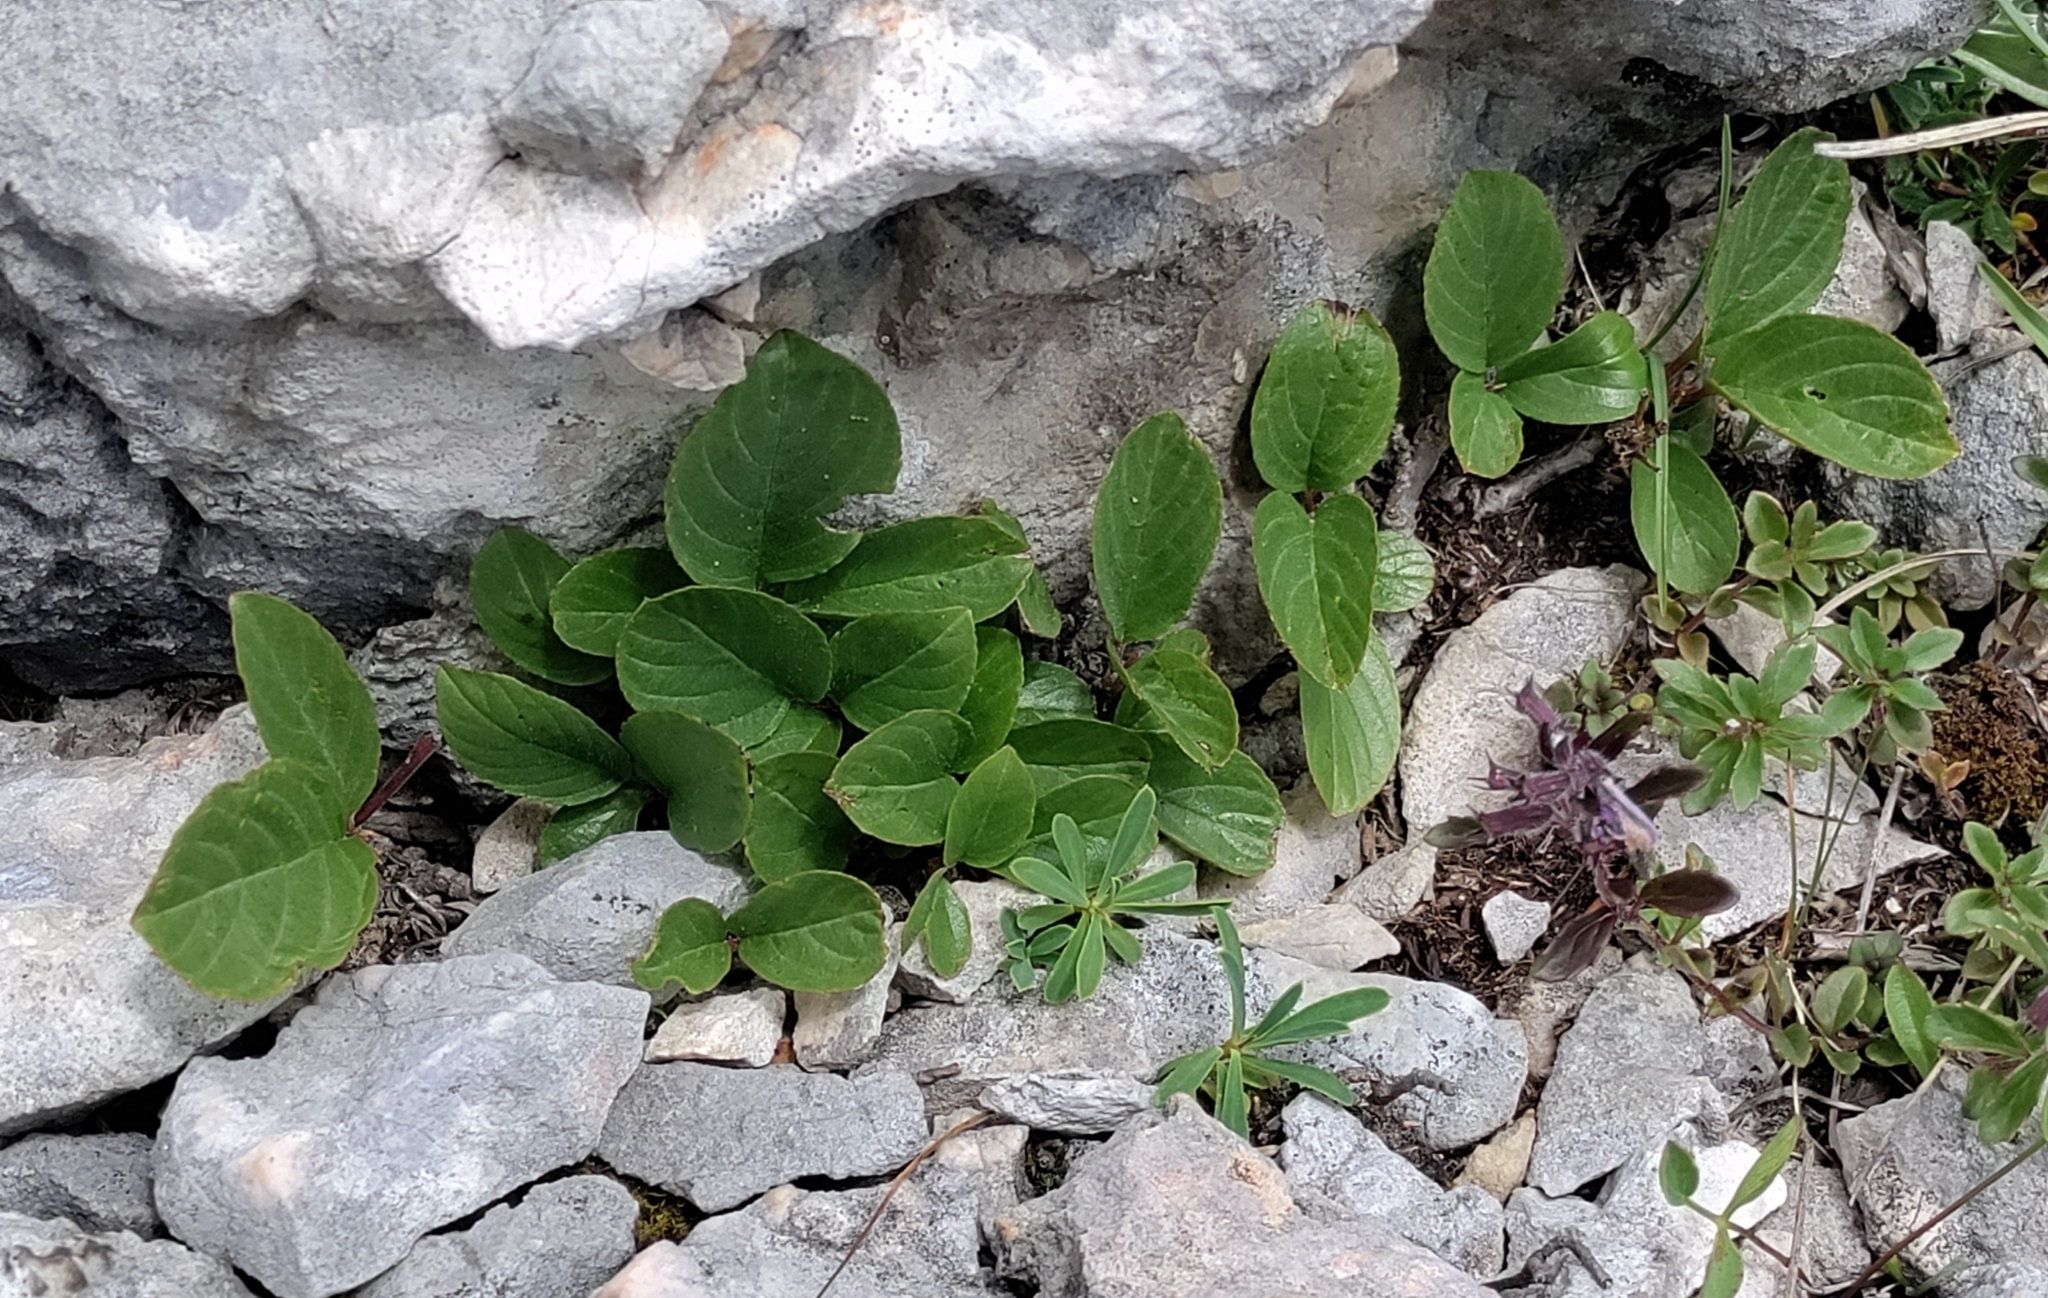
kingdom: Plantae
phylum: Tracheophyta
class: Magnoliopsida
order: Rosales
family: Rhamnaceae
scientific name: Rhamnaceae
